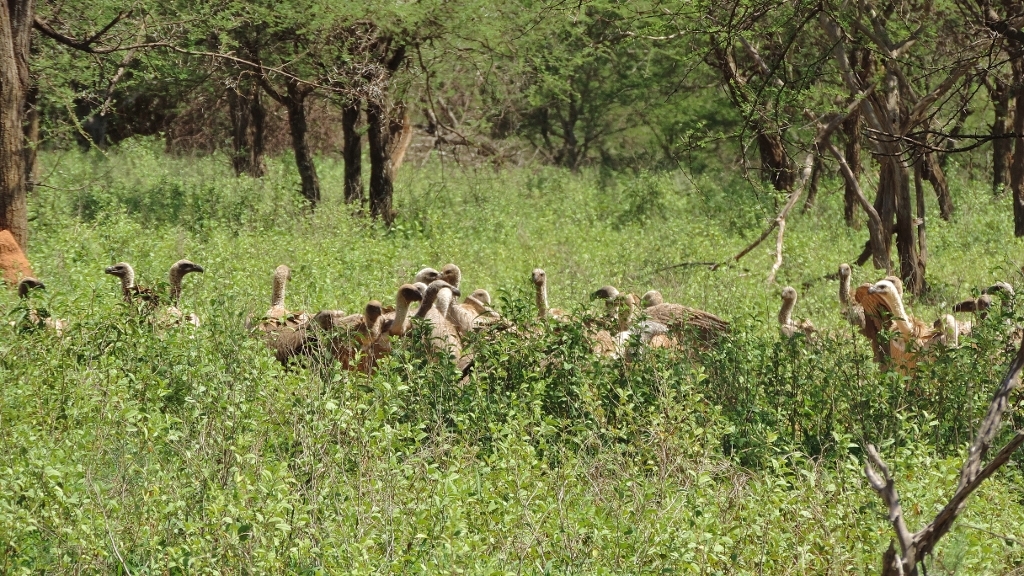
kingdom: Animalia
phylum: Chordata
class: Aves
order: Accipitriformes
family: Accipitridae
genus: Gyps
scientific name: Gyps africanus
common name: White-backed vulture
